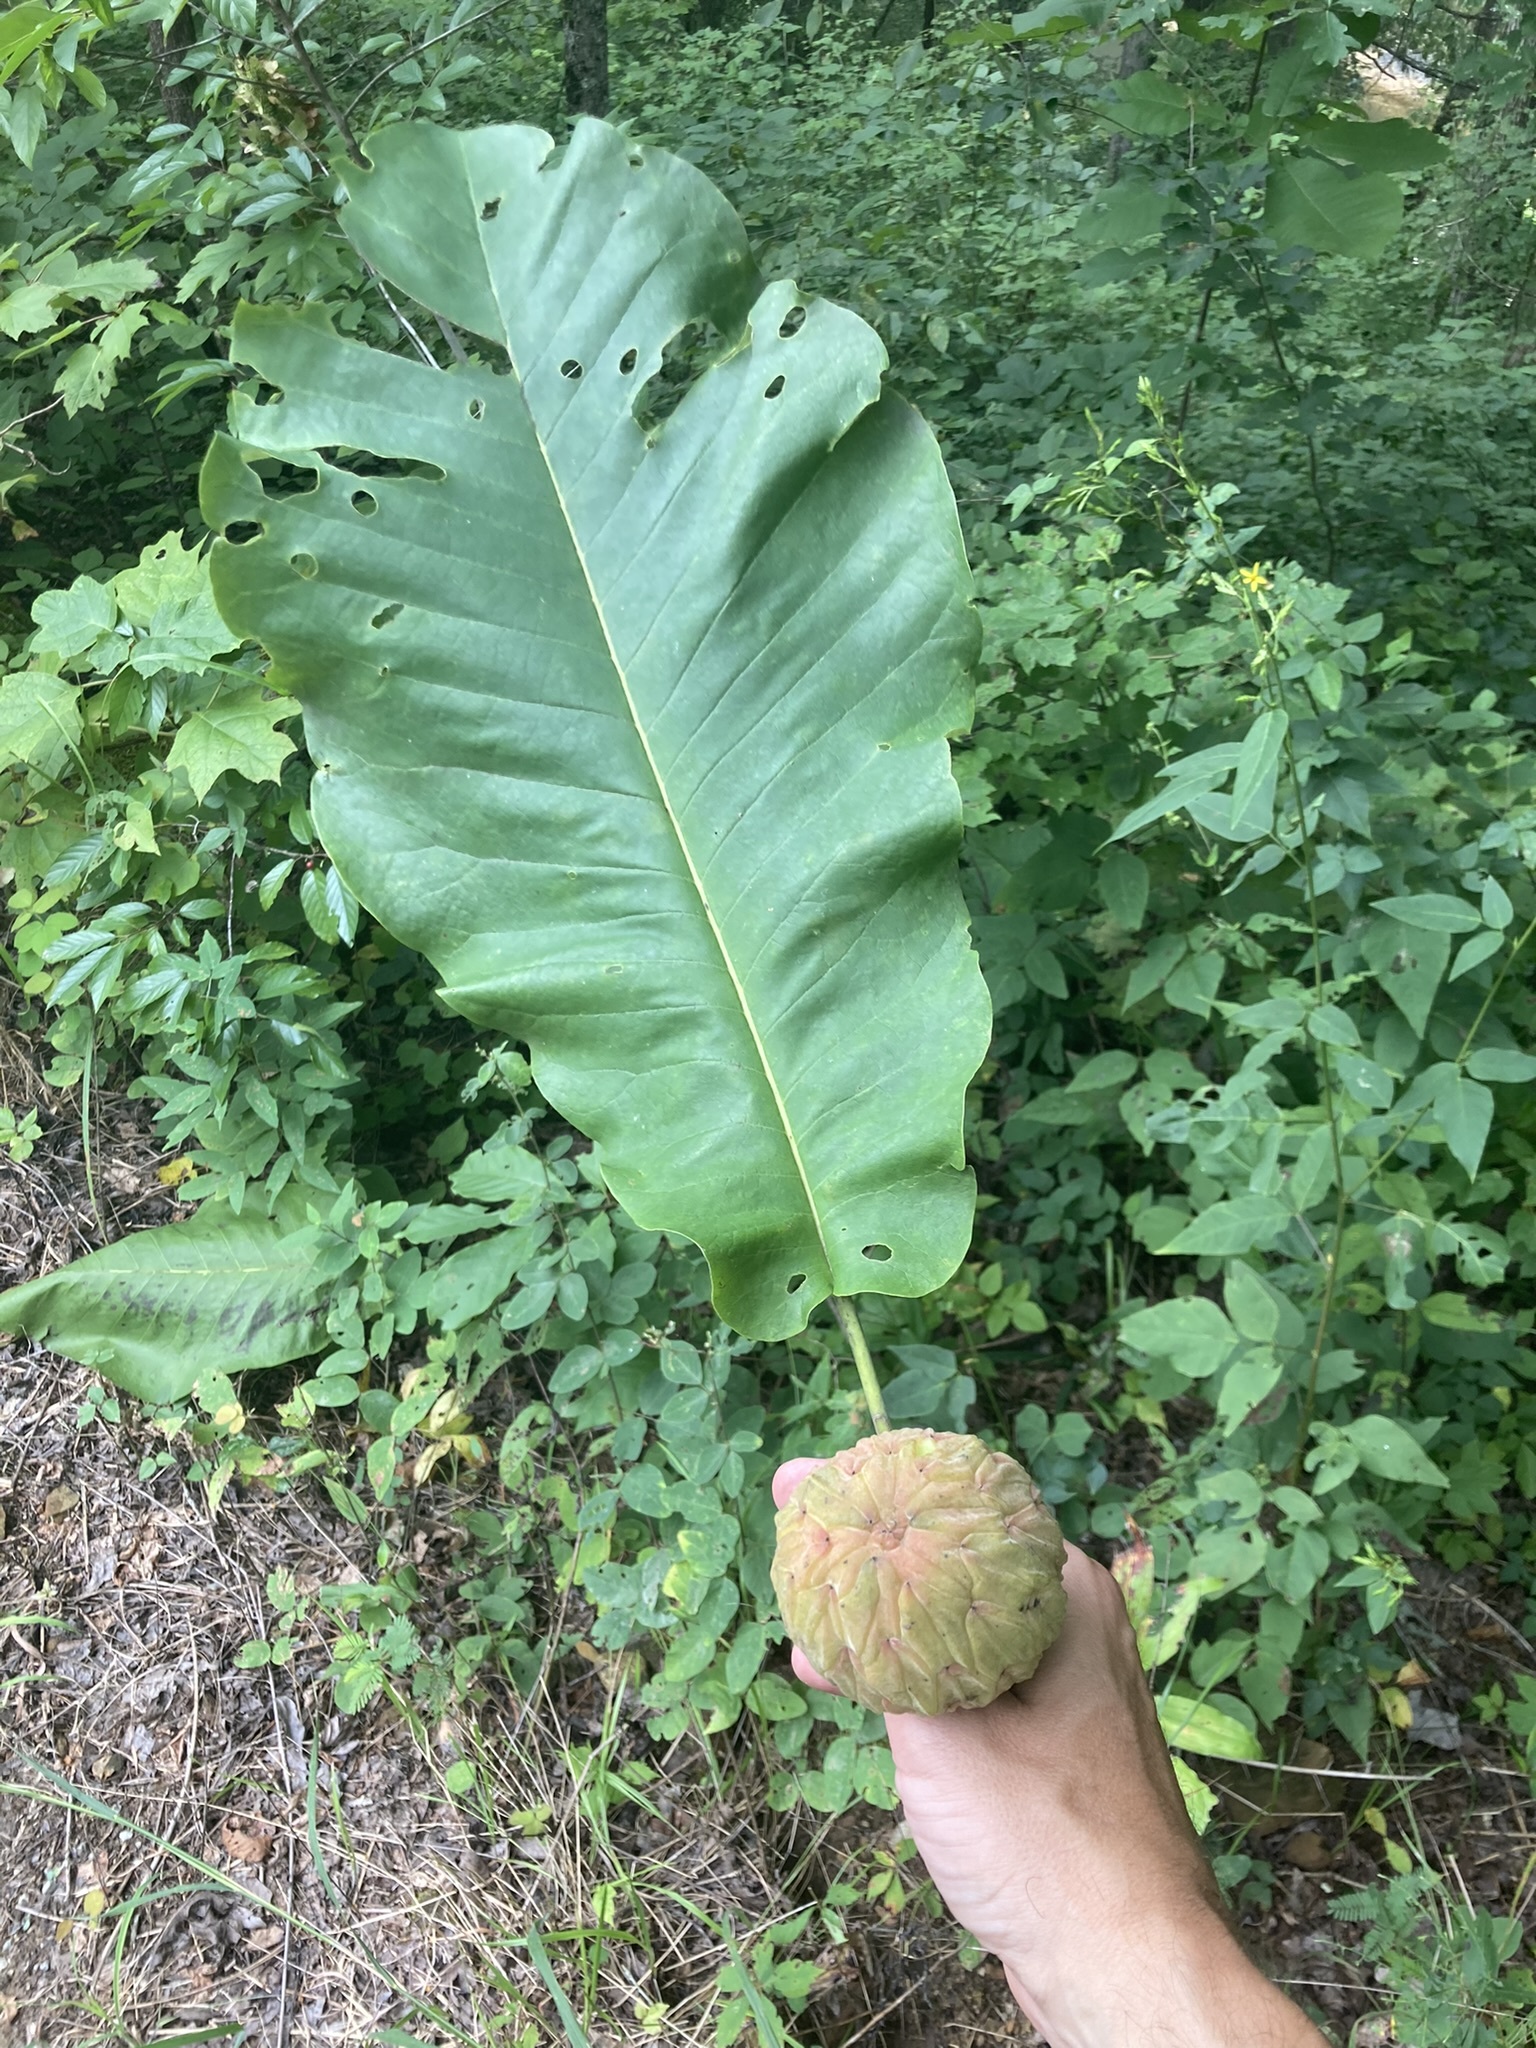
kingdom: Plantae
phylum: Tracheophyta
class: Magnoliopsida
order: Magnoliales
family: Magnoliaceae
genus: Magnolia
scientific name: Magnolia macrophylla
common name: Big-leaf magnolia
